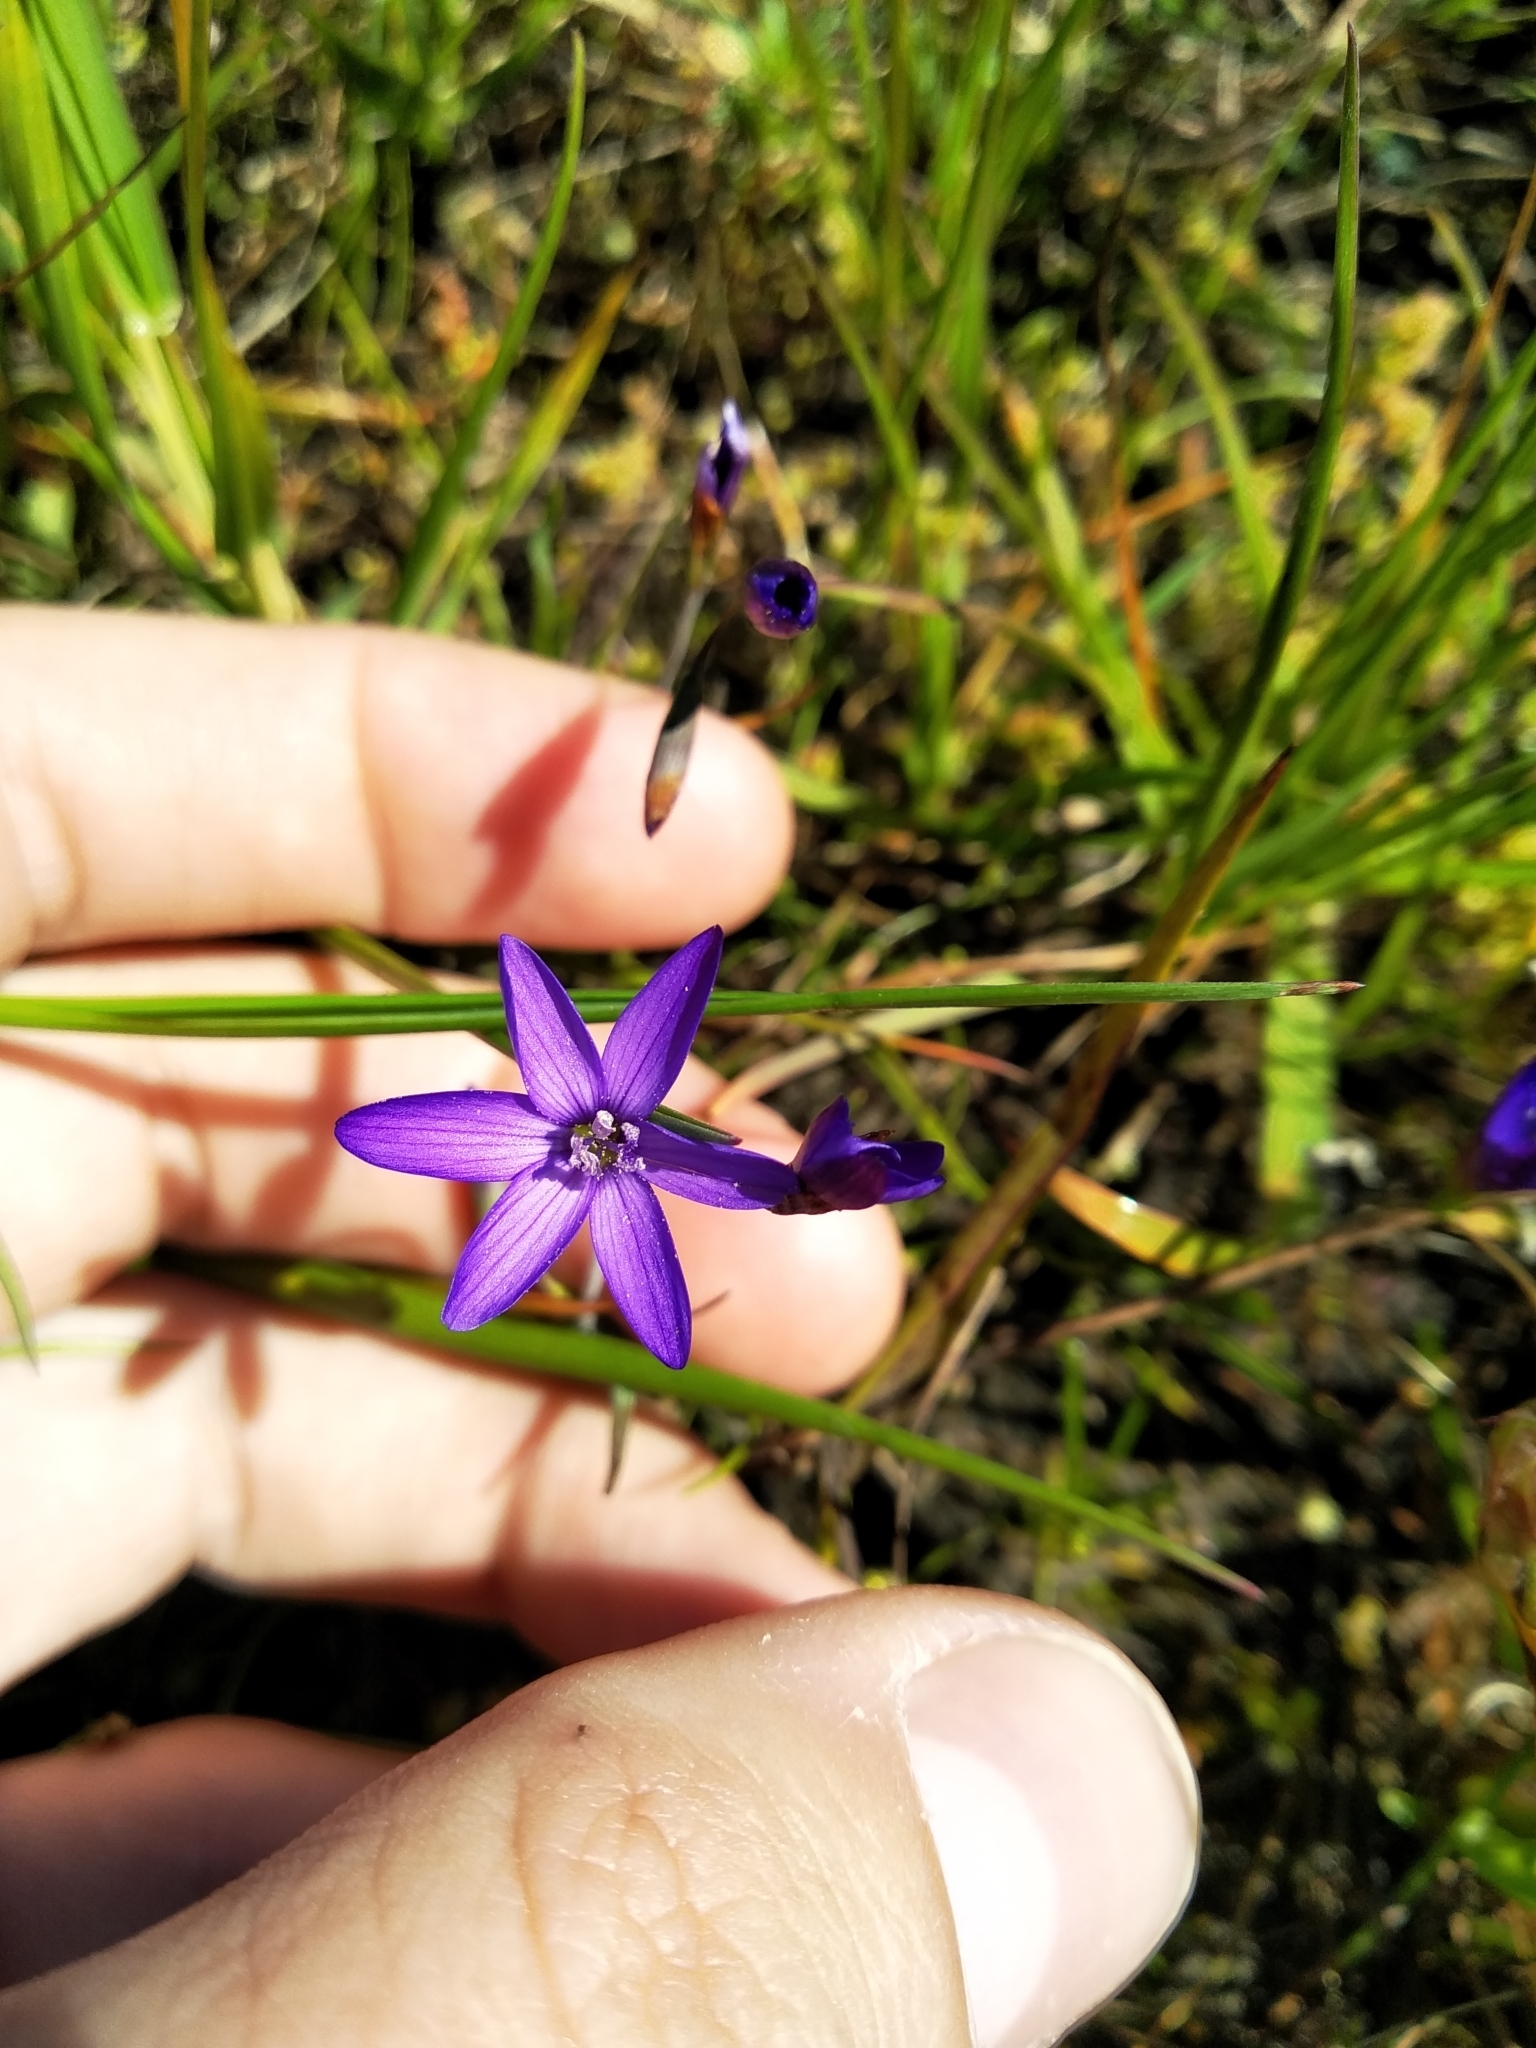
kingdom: Plantae
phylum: Tracheophyta
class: Liliopsida
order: Asparagales
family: Iridaceae
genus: Geissorhiza
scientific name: Geissorhiza aspera
